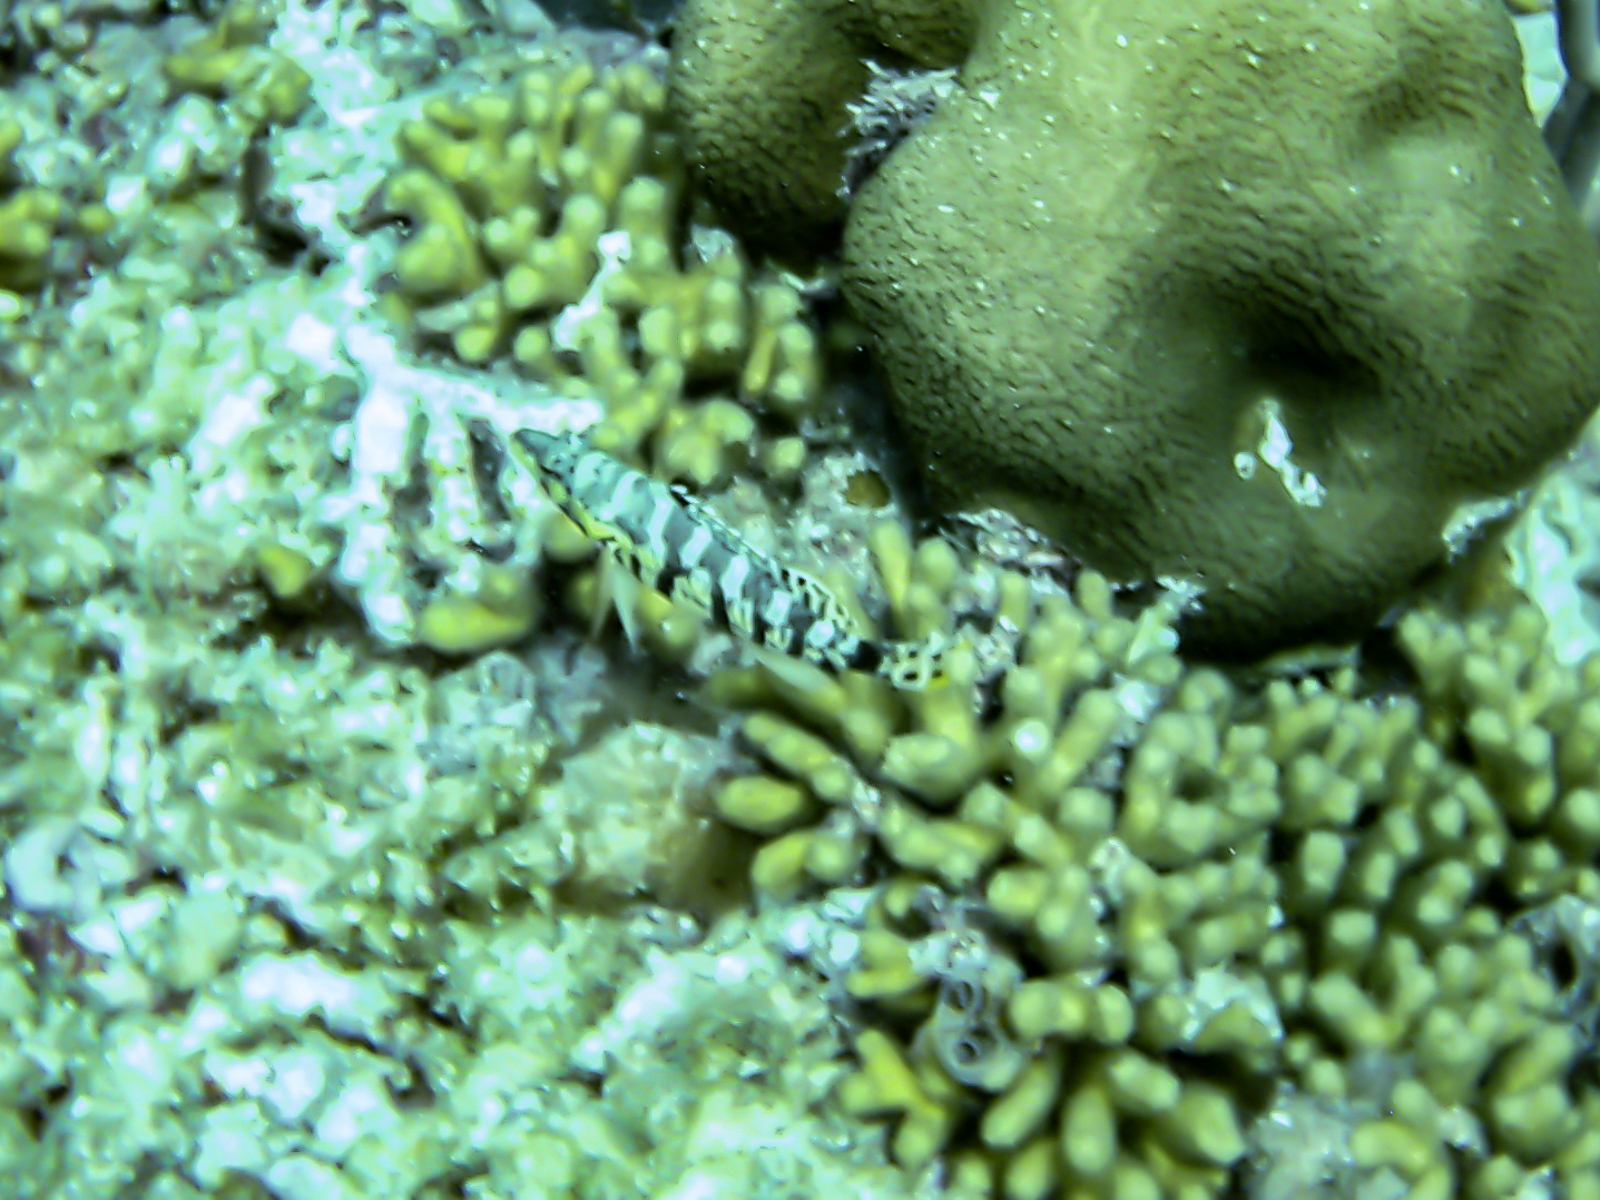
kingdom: Animalia
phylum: Chordata
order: Perciformes
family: Serranidae
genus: Serranus
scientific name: Serranus tigrinus
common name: Harlequin bass
